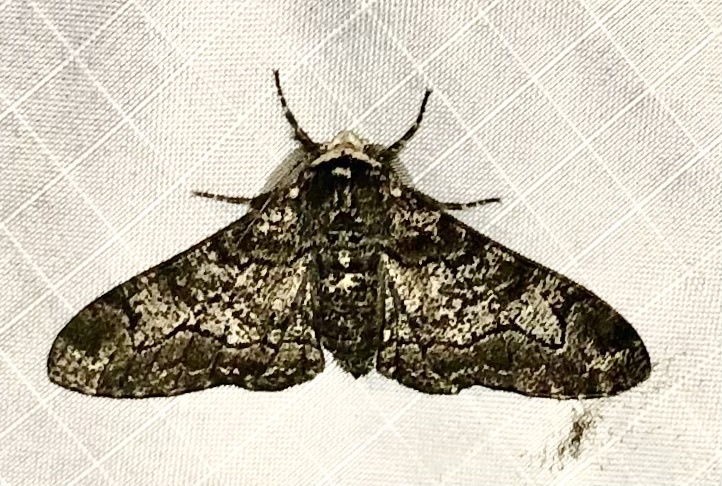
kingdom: Animalia
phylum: Arthropoda
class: Insecta
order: Lepidoptera
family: Geometridae
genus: Biston
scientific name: Biston betularia
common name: Peppered moth
